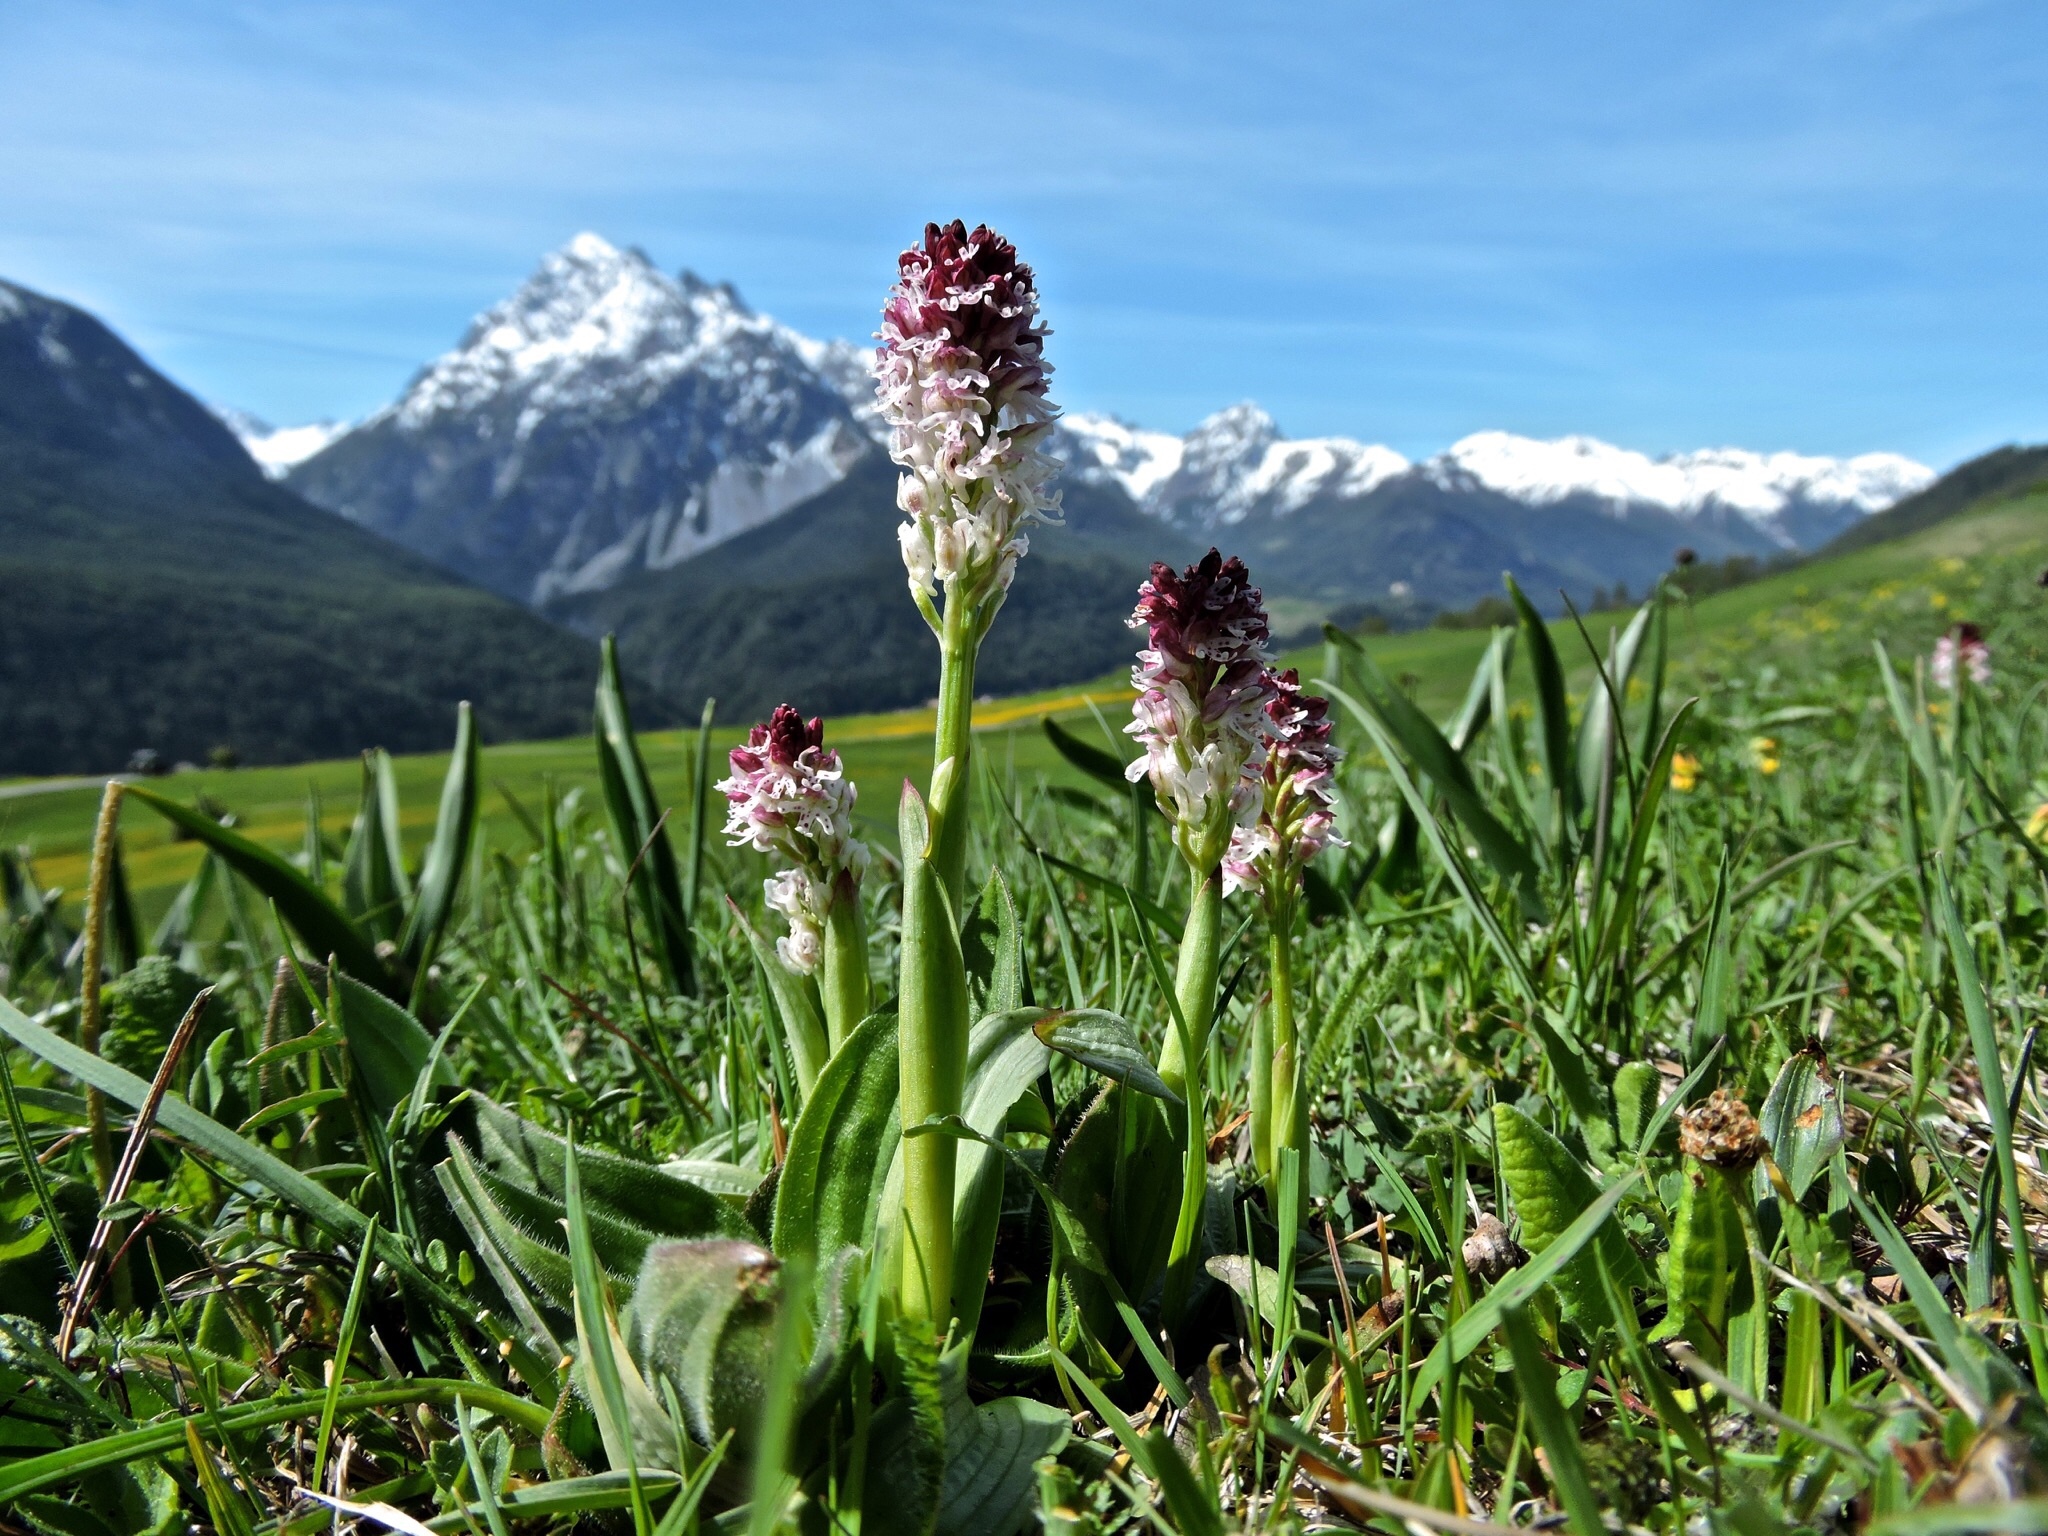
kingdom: Plantae
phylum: Tracheophyta
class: Liliopsida
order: Asparagales
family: Orchidaceae
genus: Neotinea
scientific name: Neotinea ustulata
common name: Burnt orchid
